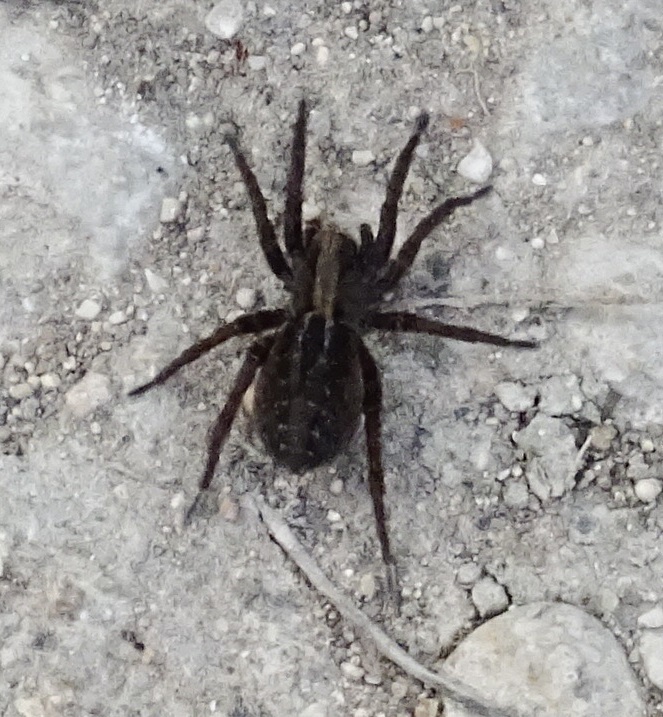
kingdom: Animalia
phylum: Arthropoda
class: Arachnida
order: Araneae
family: Lycosidae
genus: Alopecosa
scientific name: Alopecosa pulverulenta
